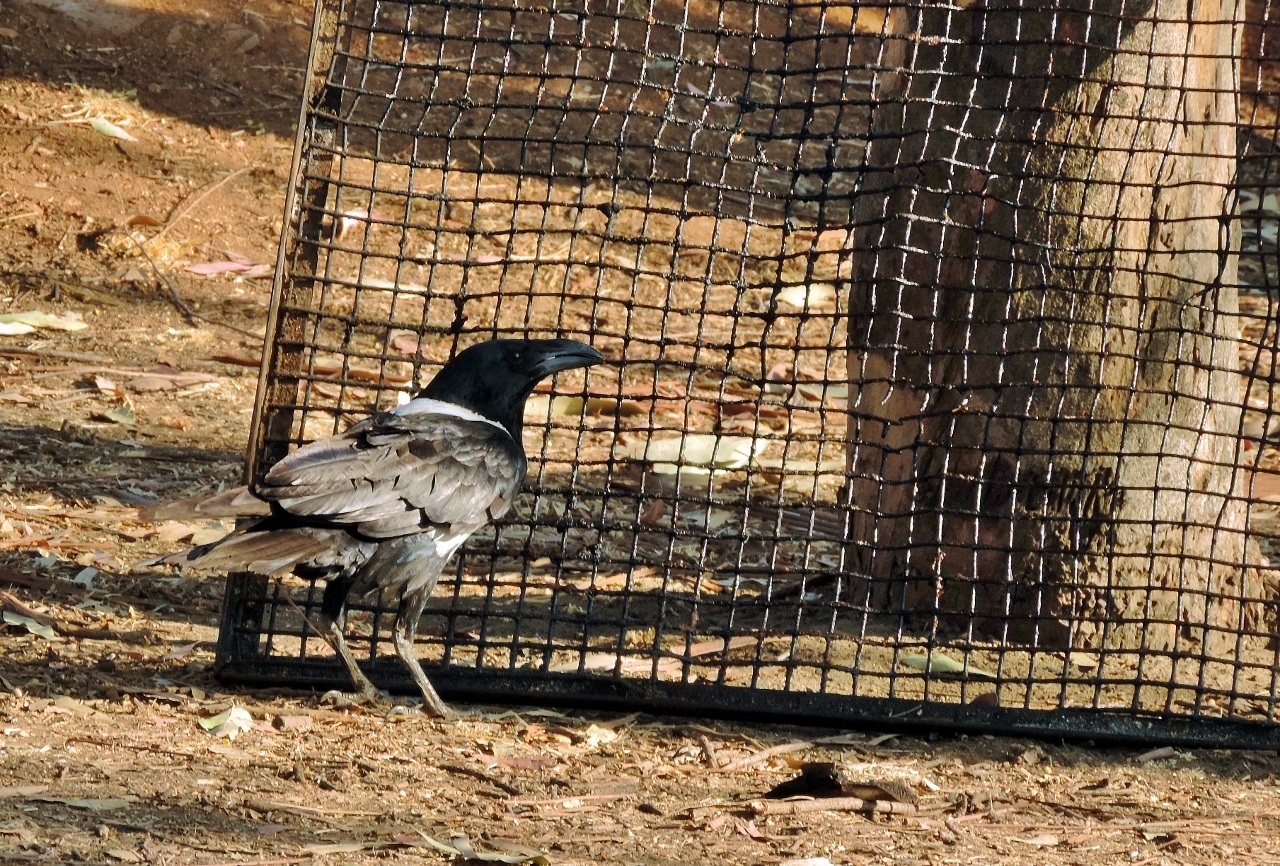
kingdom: Animalia
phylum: Chordata
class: Aves
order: Passeriformes
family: Corvidae
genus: Corvus
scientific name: Corvus albus
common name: Pied crow
